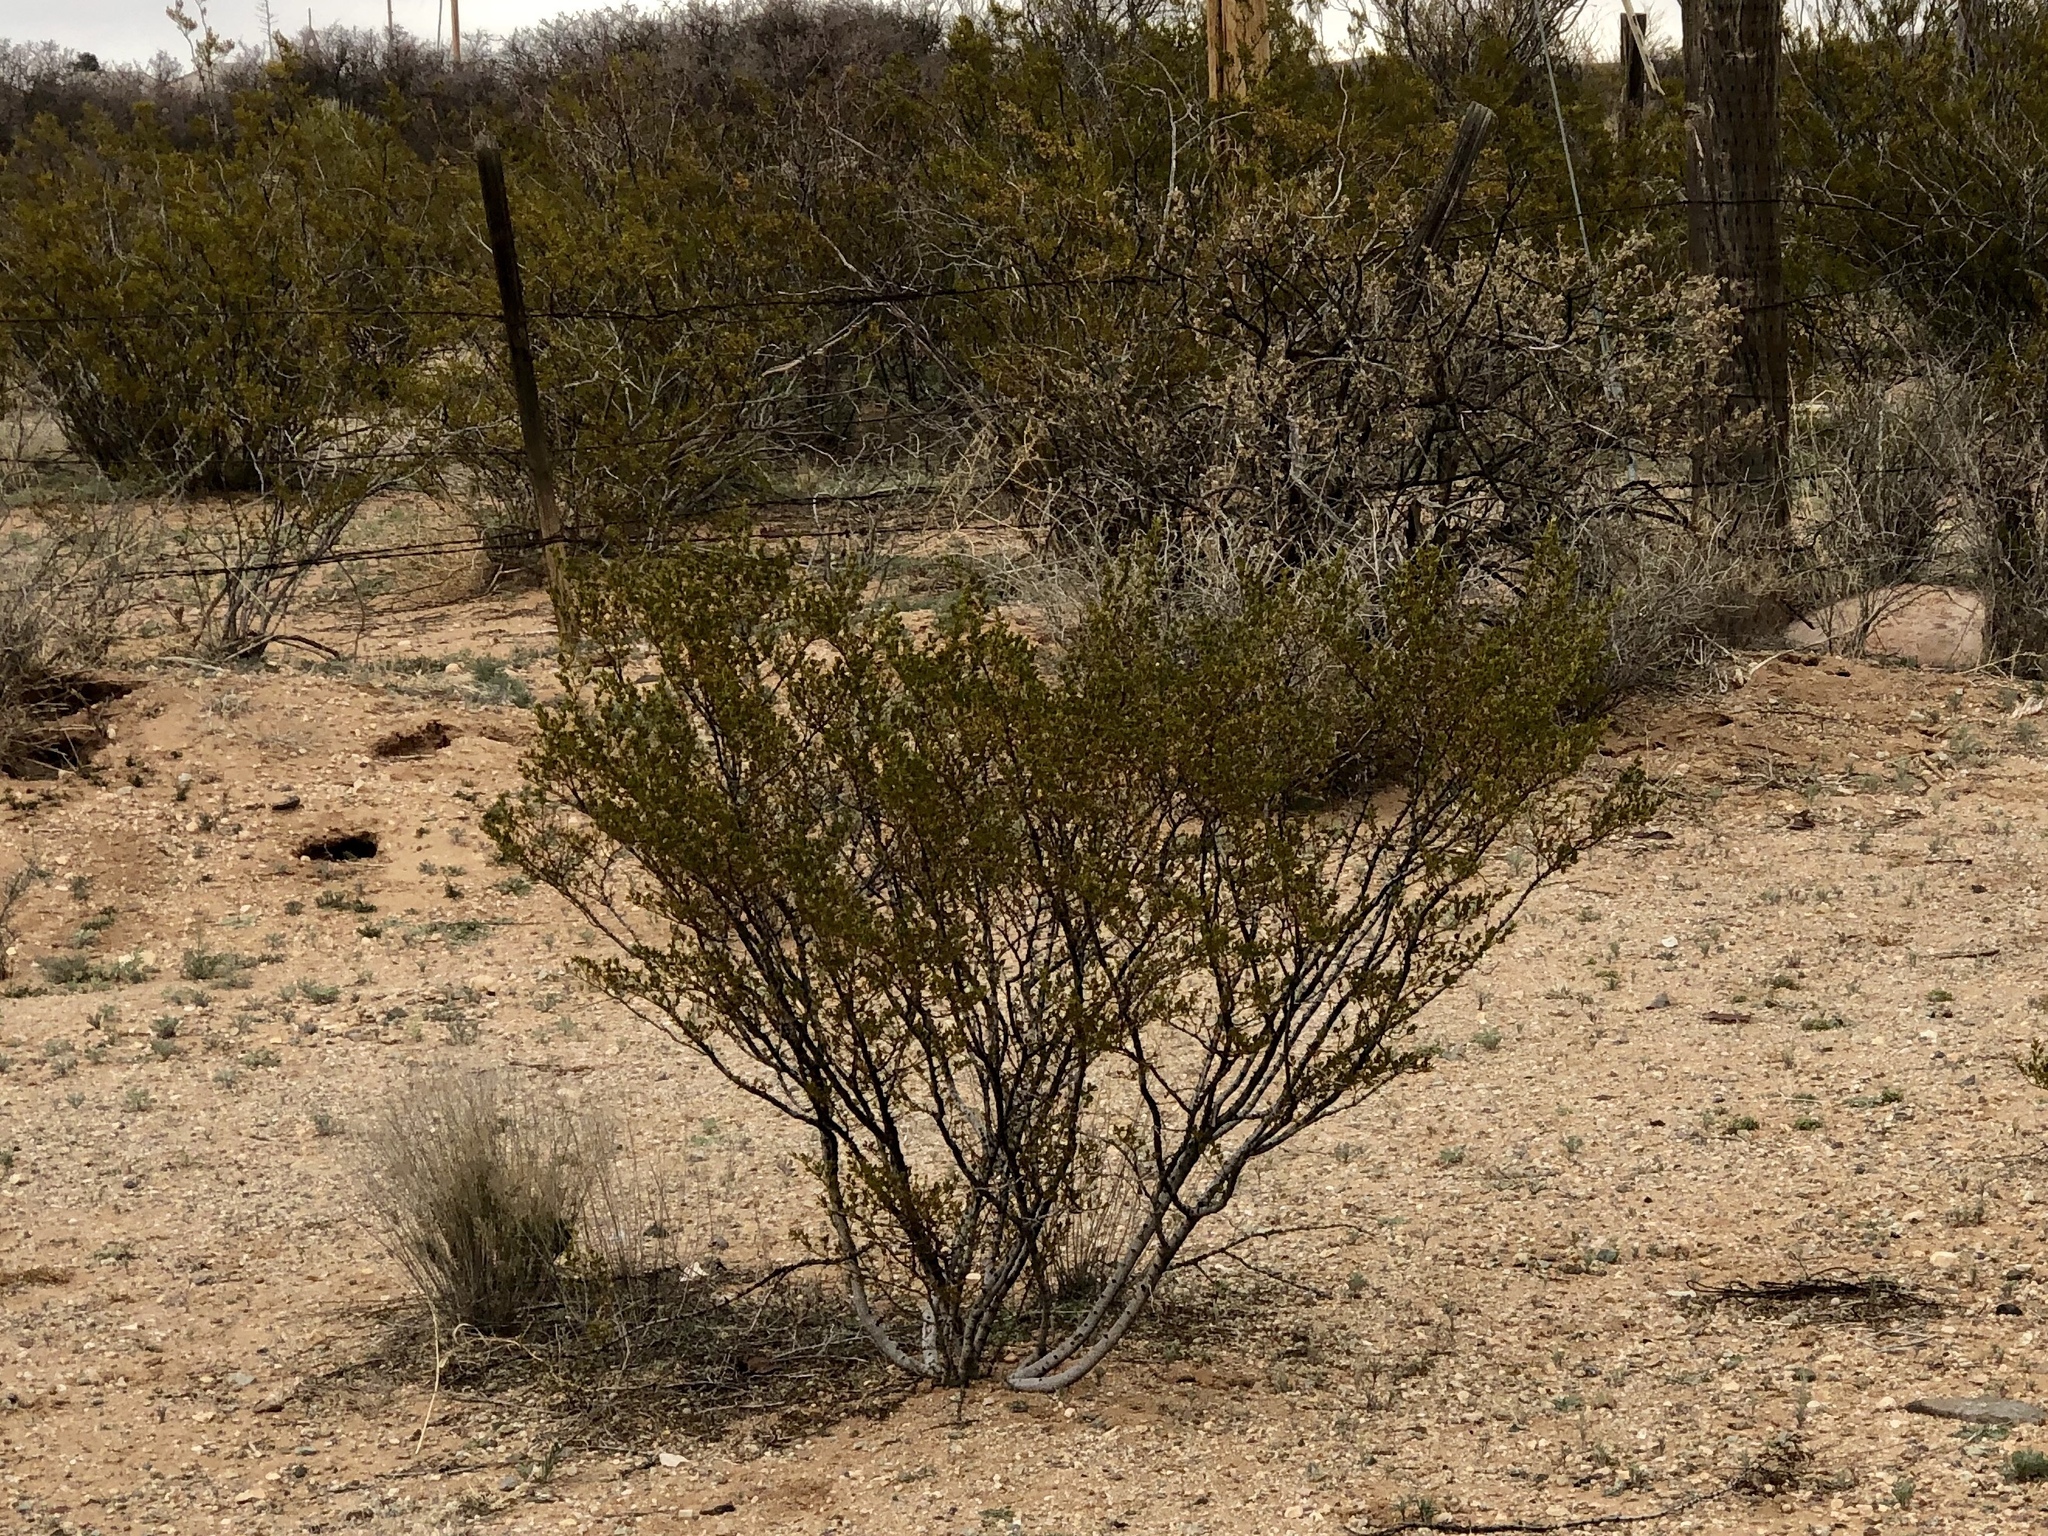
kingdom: Plantae
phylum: Tracheophyta
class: Magnoliopsida
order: Zygophyllales
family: Zygophyllaceae
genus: Larrea
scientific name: Larrea tridentata
